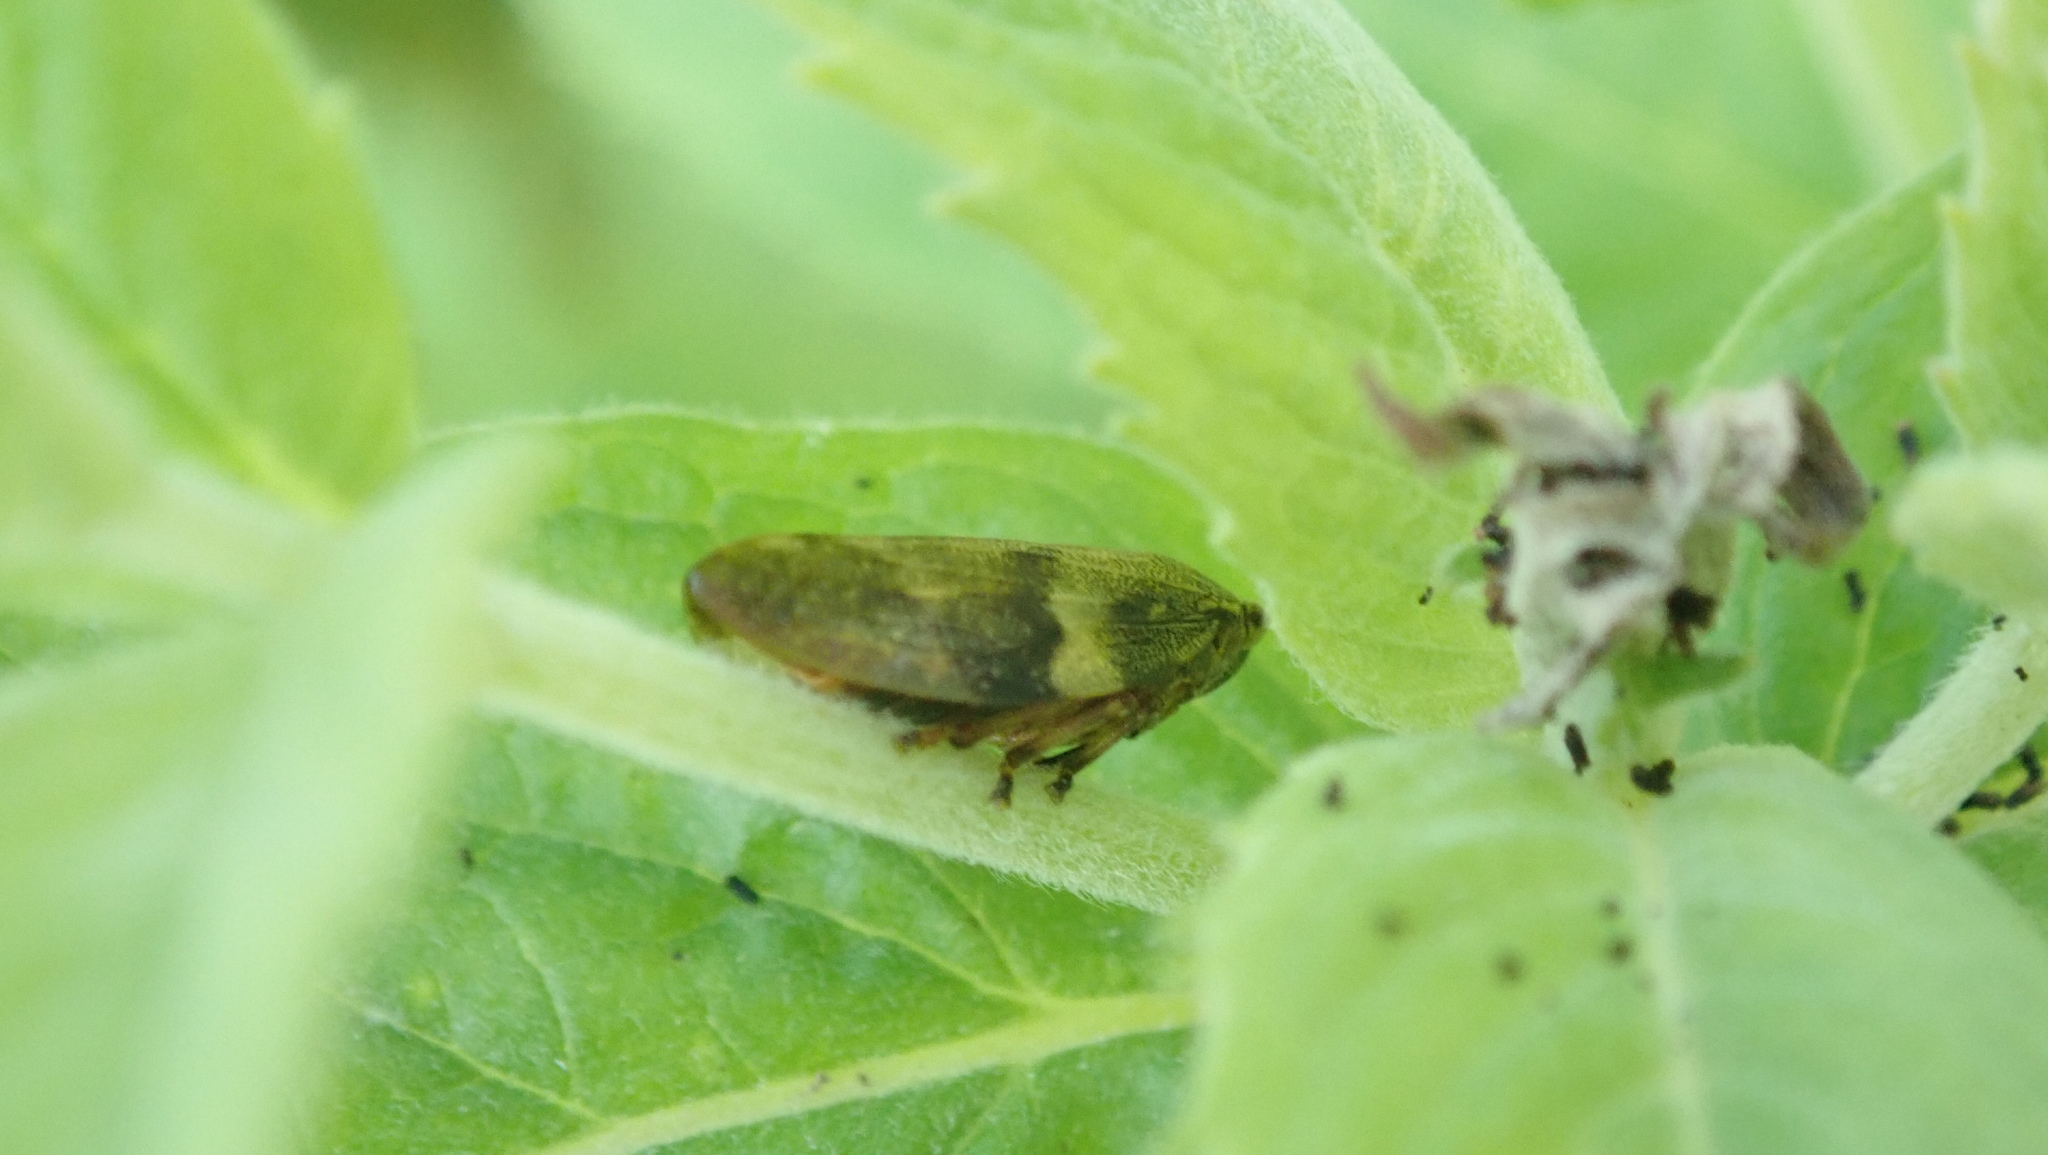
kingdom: Animalia
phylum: Arthropoda
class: Insecta
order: Hemiptera
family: Aphrophoridae
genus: Aphrophora
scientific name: Aphrophora alni
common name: European alder spittlebug
